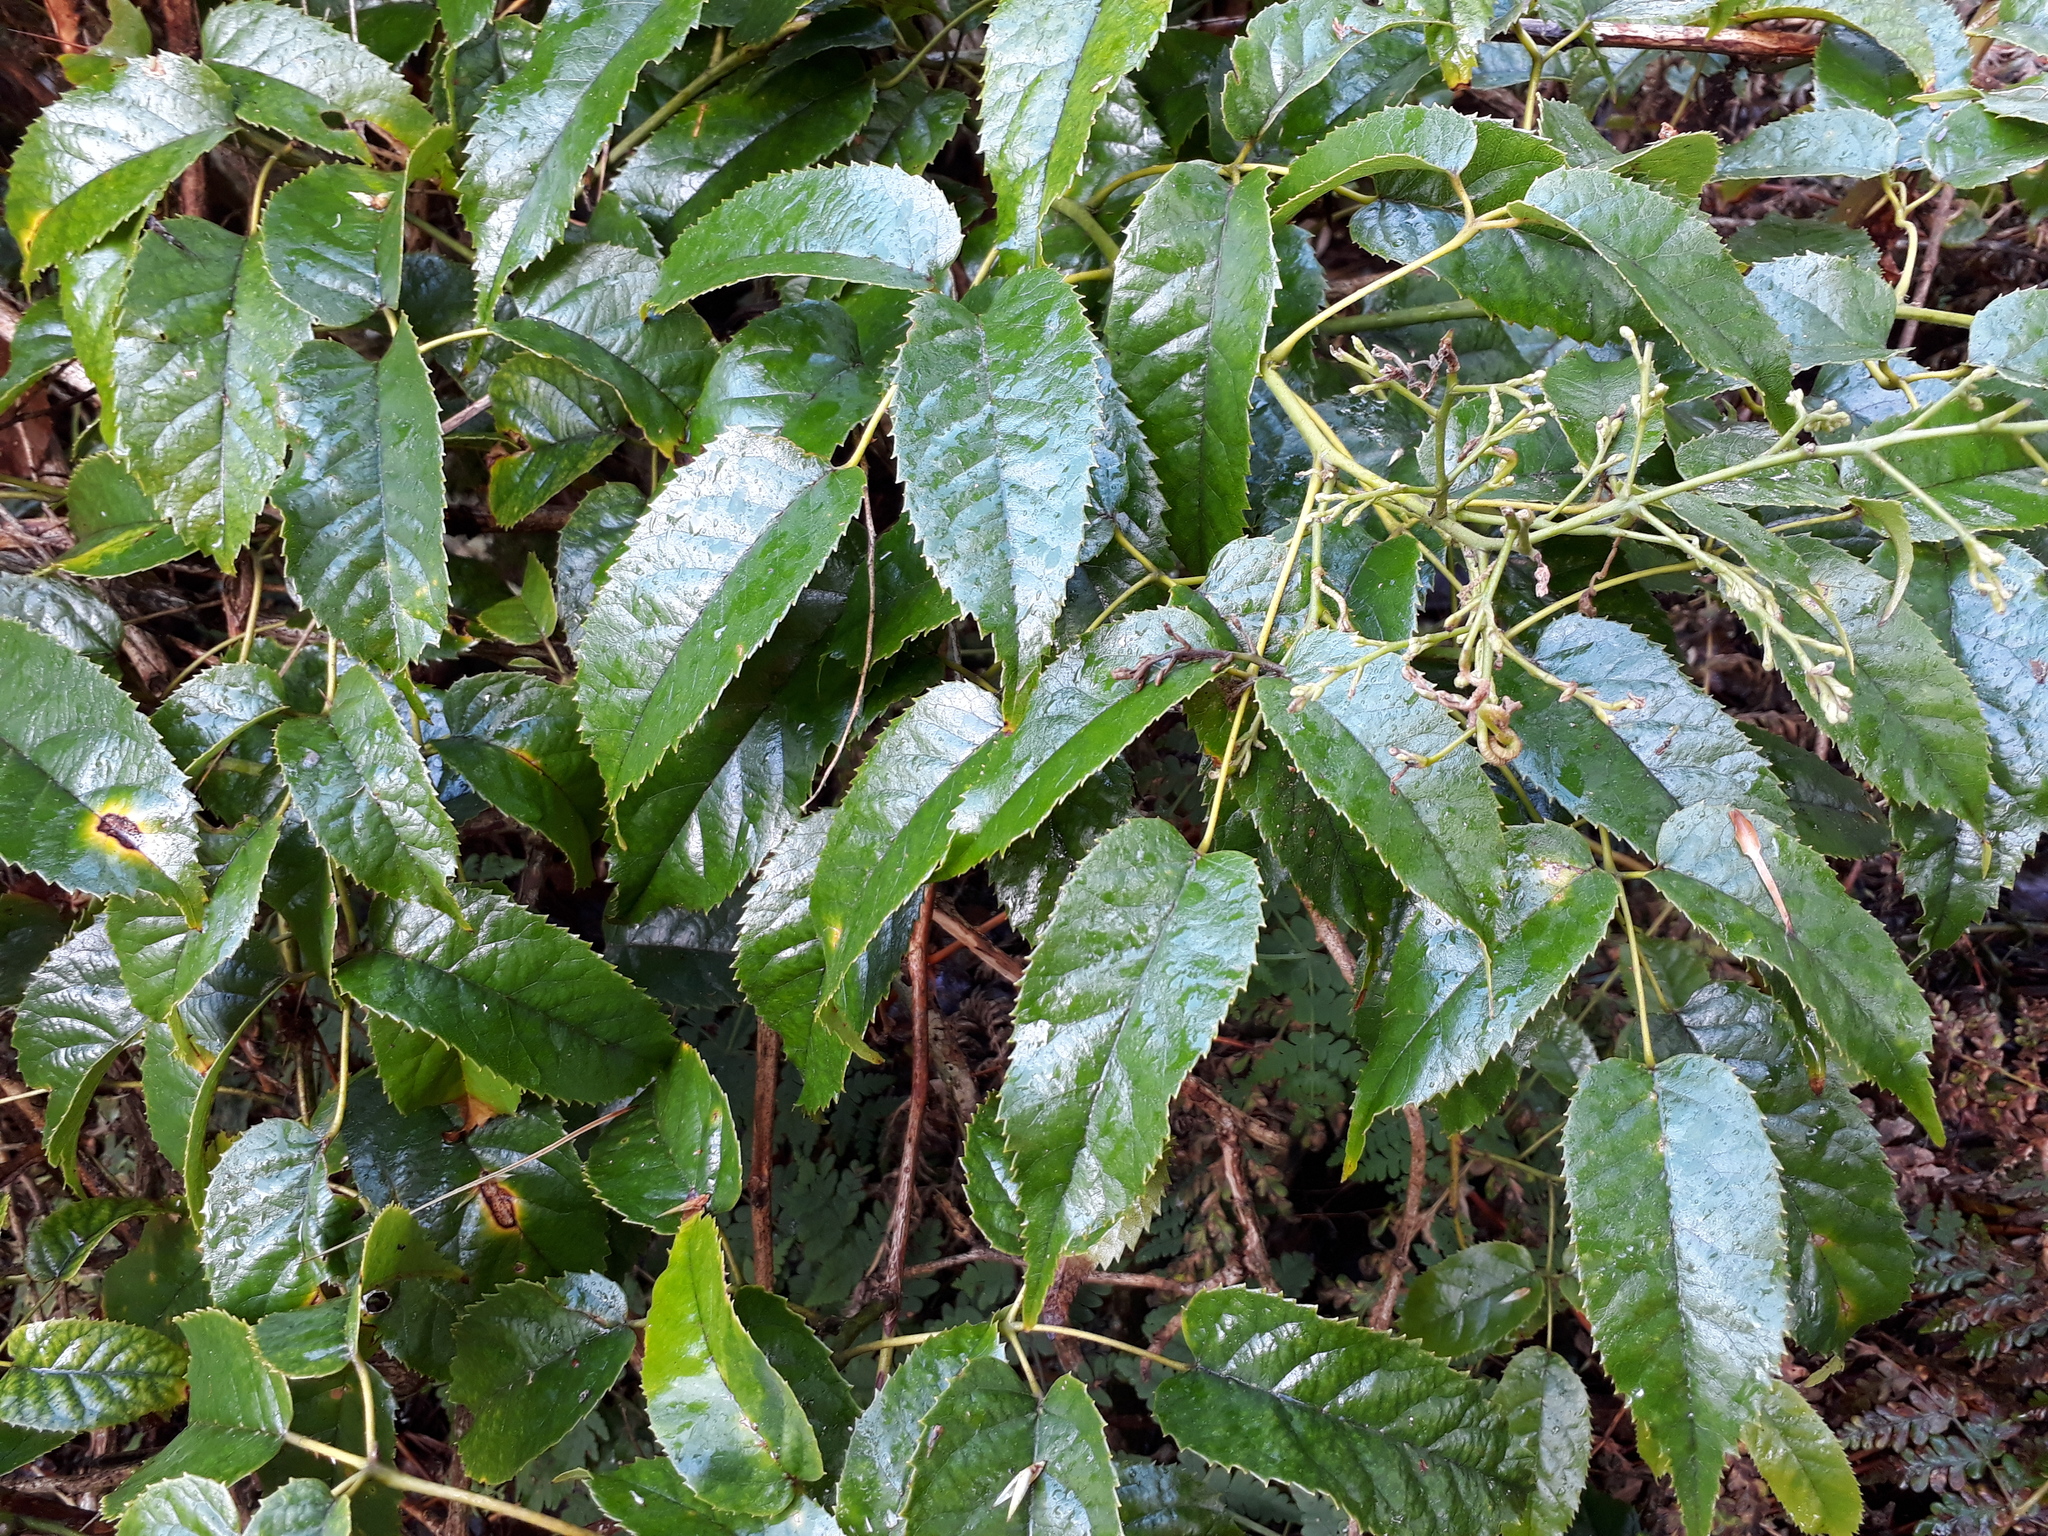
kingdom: Plantae
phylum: Tracheophyta
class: Magnoliopsida
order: Rosales
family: Rosaceae
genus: Rubus
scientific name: Rubus cissoides
